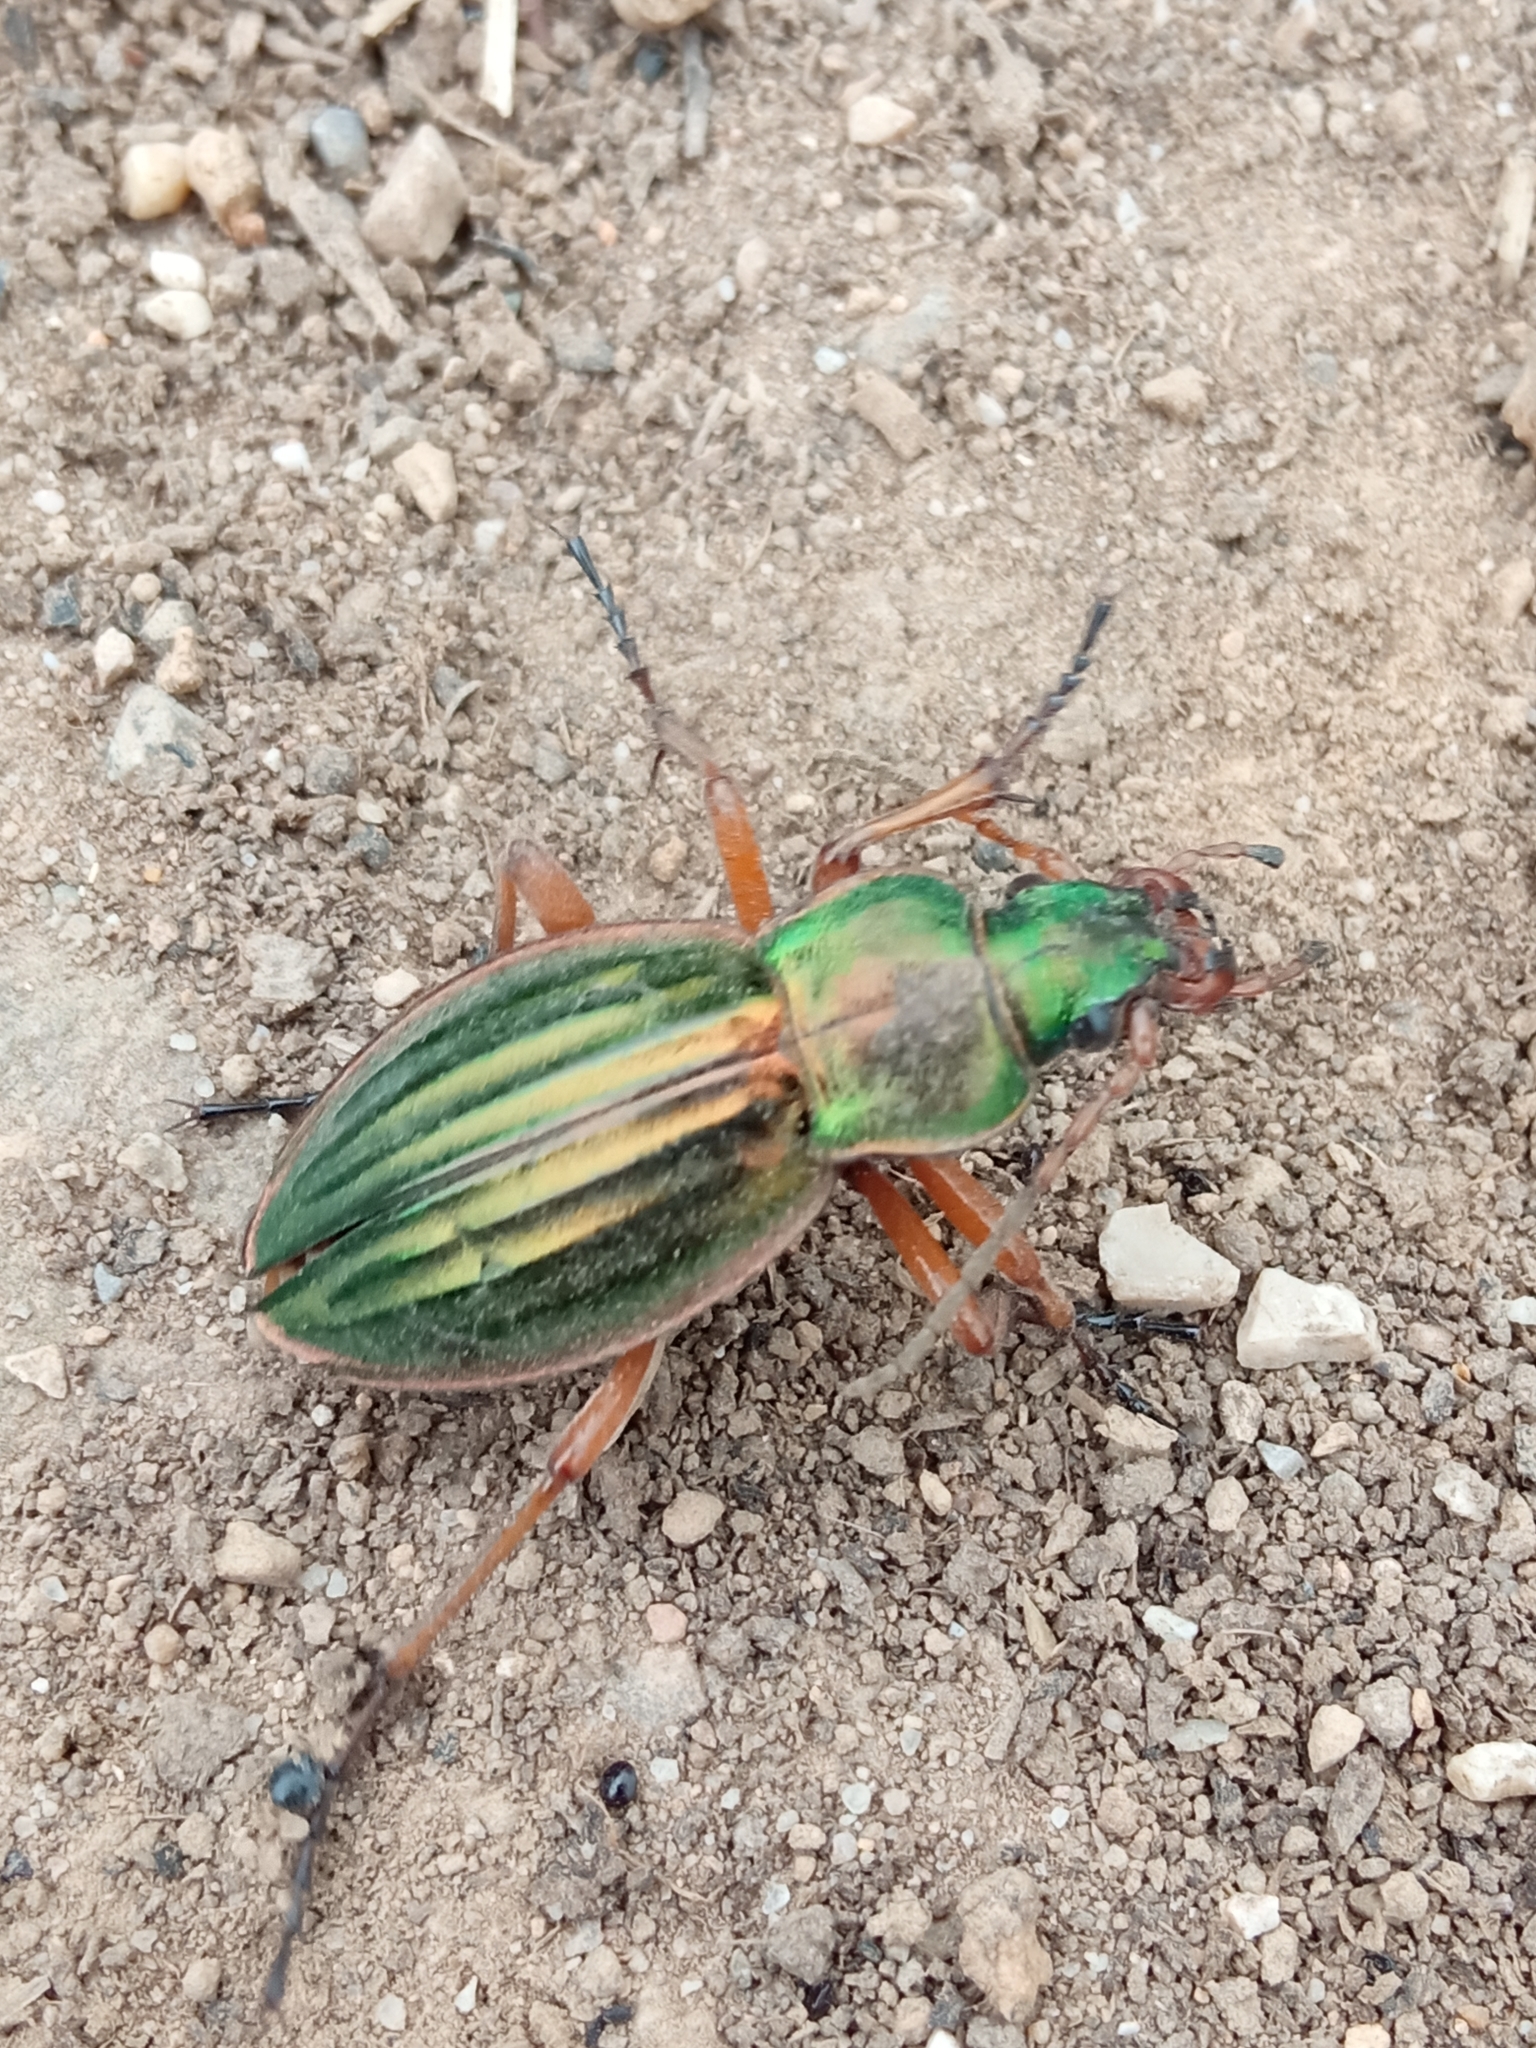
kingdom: Animalia
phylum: Arthropoda
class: Insecta
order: Coleoptera
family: Carabidae
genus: Carabus
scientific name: Carabus auratus
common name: Golden ground beetle
